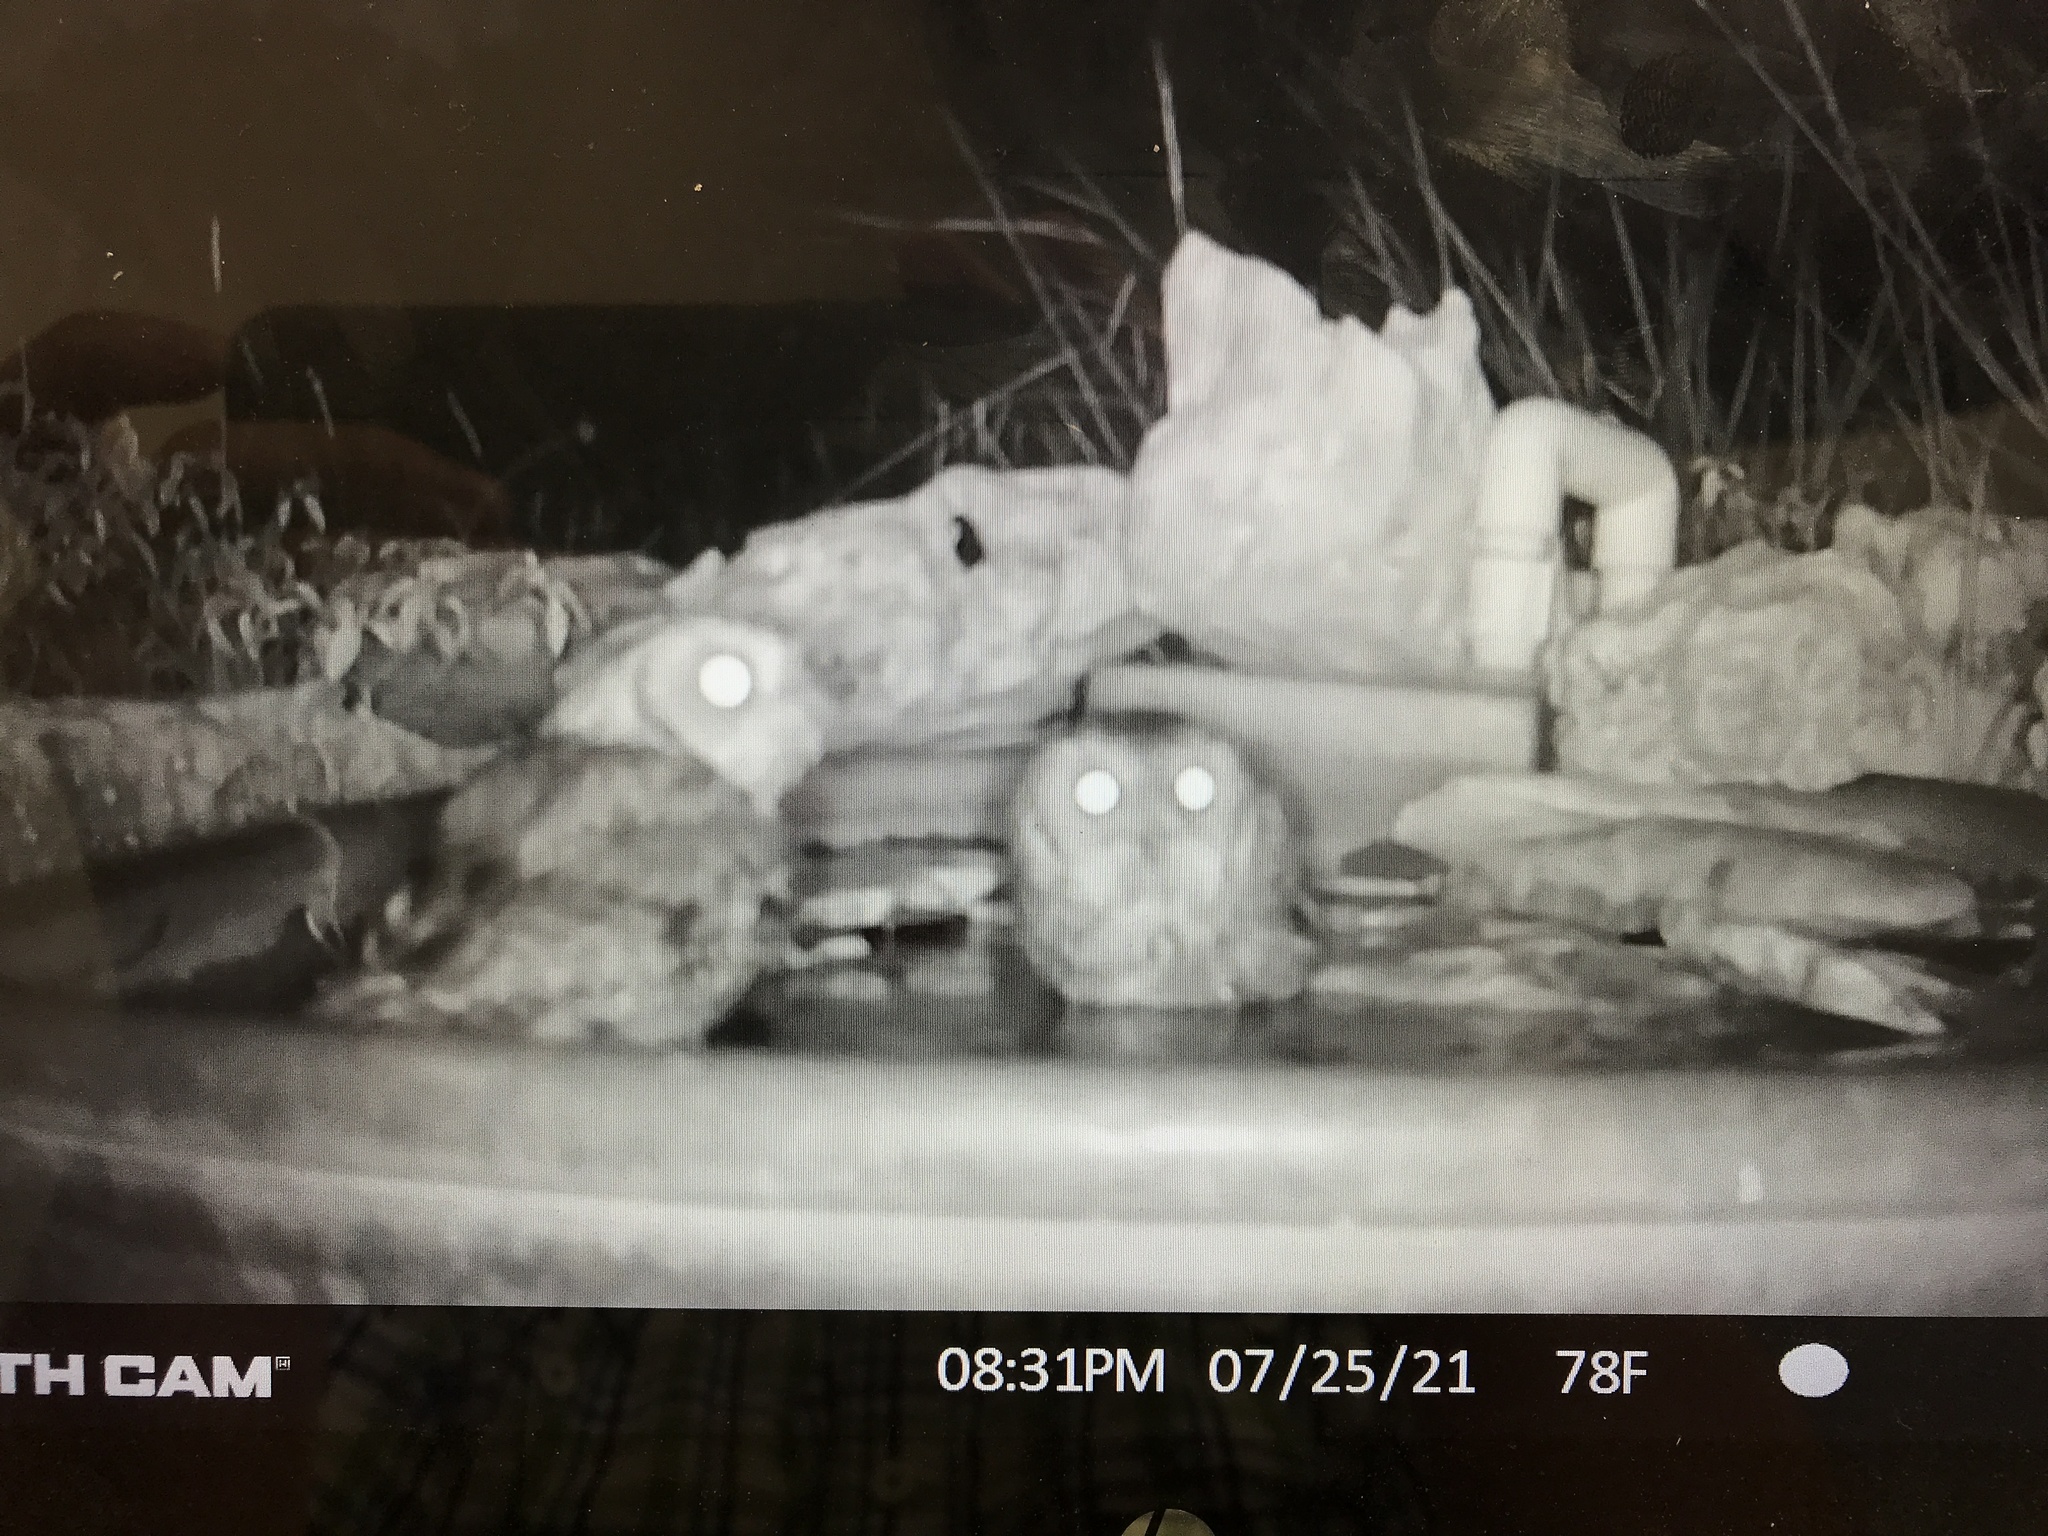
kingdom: Animalia
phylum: Chordata
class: Aves
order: Strigiformes
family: Strigidae
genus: Megascops
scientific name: Megascops asio
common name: Eastern screech-owl
